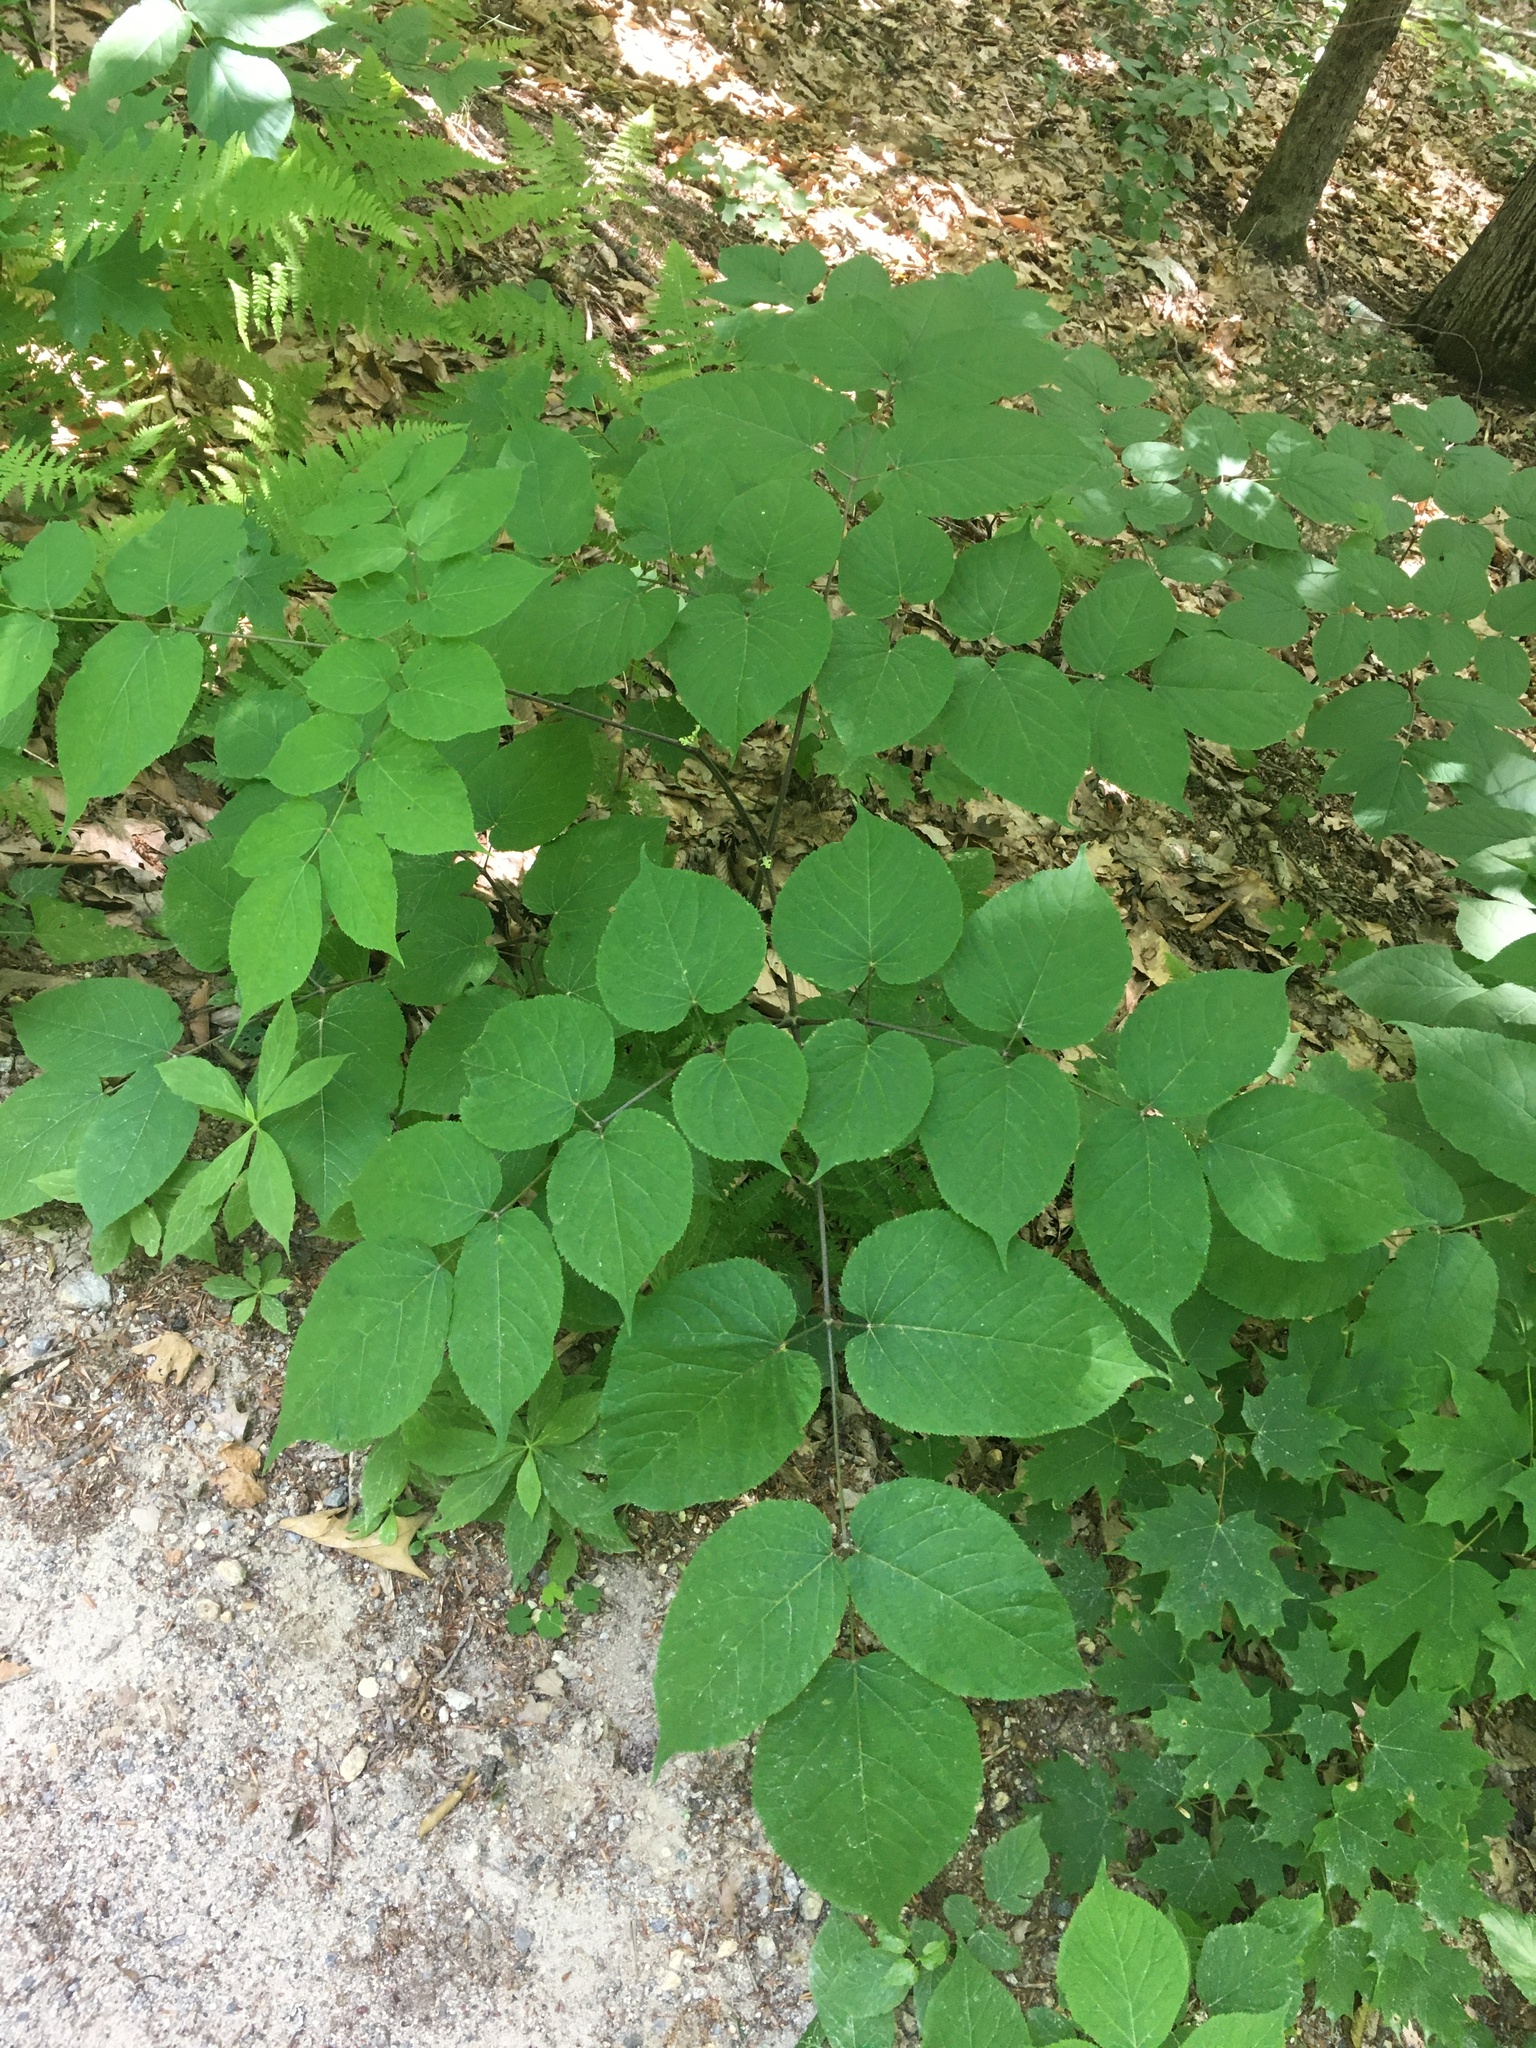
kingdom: Plantae
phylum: Tracheophyta
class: Magnoliopsida
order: Apiales
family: Araliaceae
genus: Aralia
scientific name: Aralia racemosa
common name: American-spikenard
